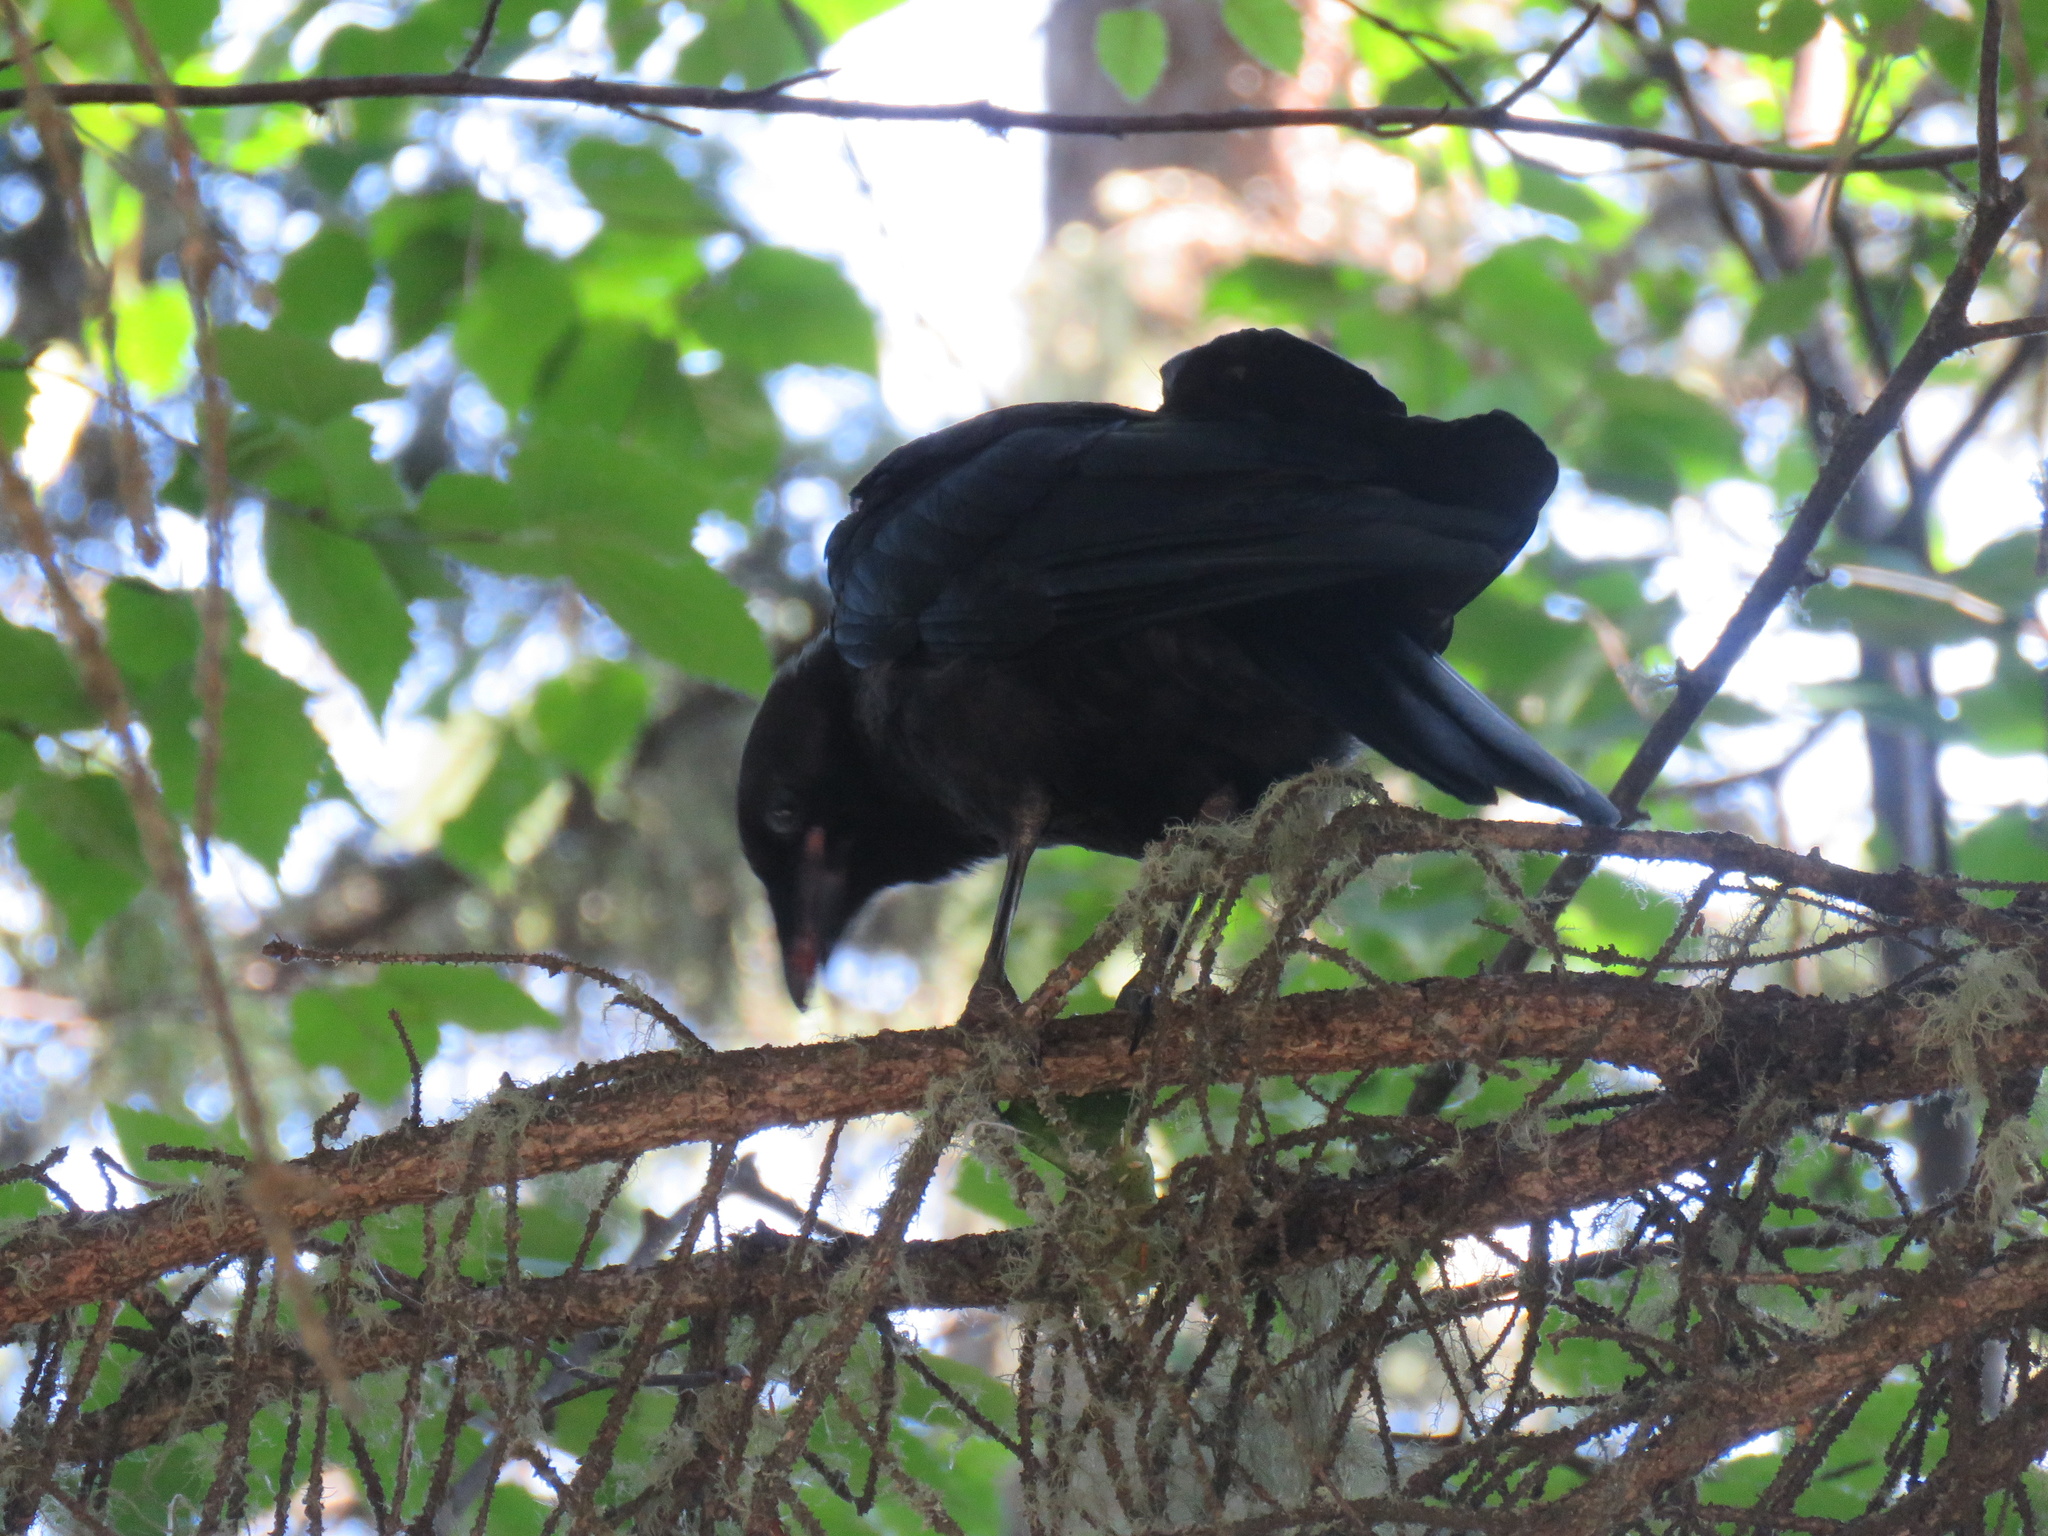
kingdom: Animalia
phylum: Chordata
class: Aves
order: Passeriformes
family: Corvidae
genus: Corvus
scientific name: Corvus brachyrhynchos
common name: American crow
